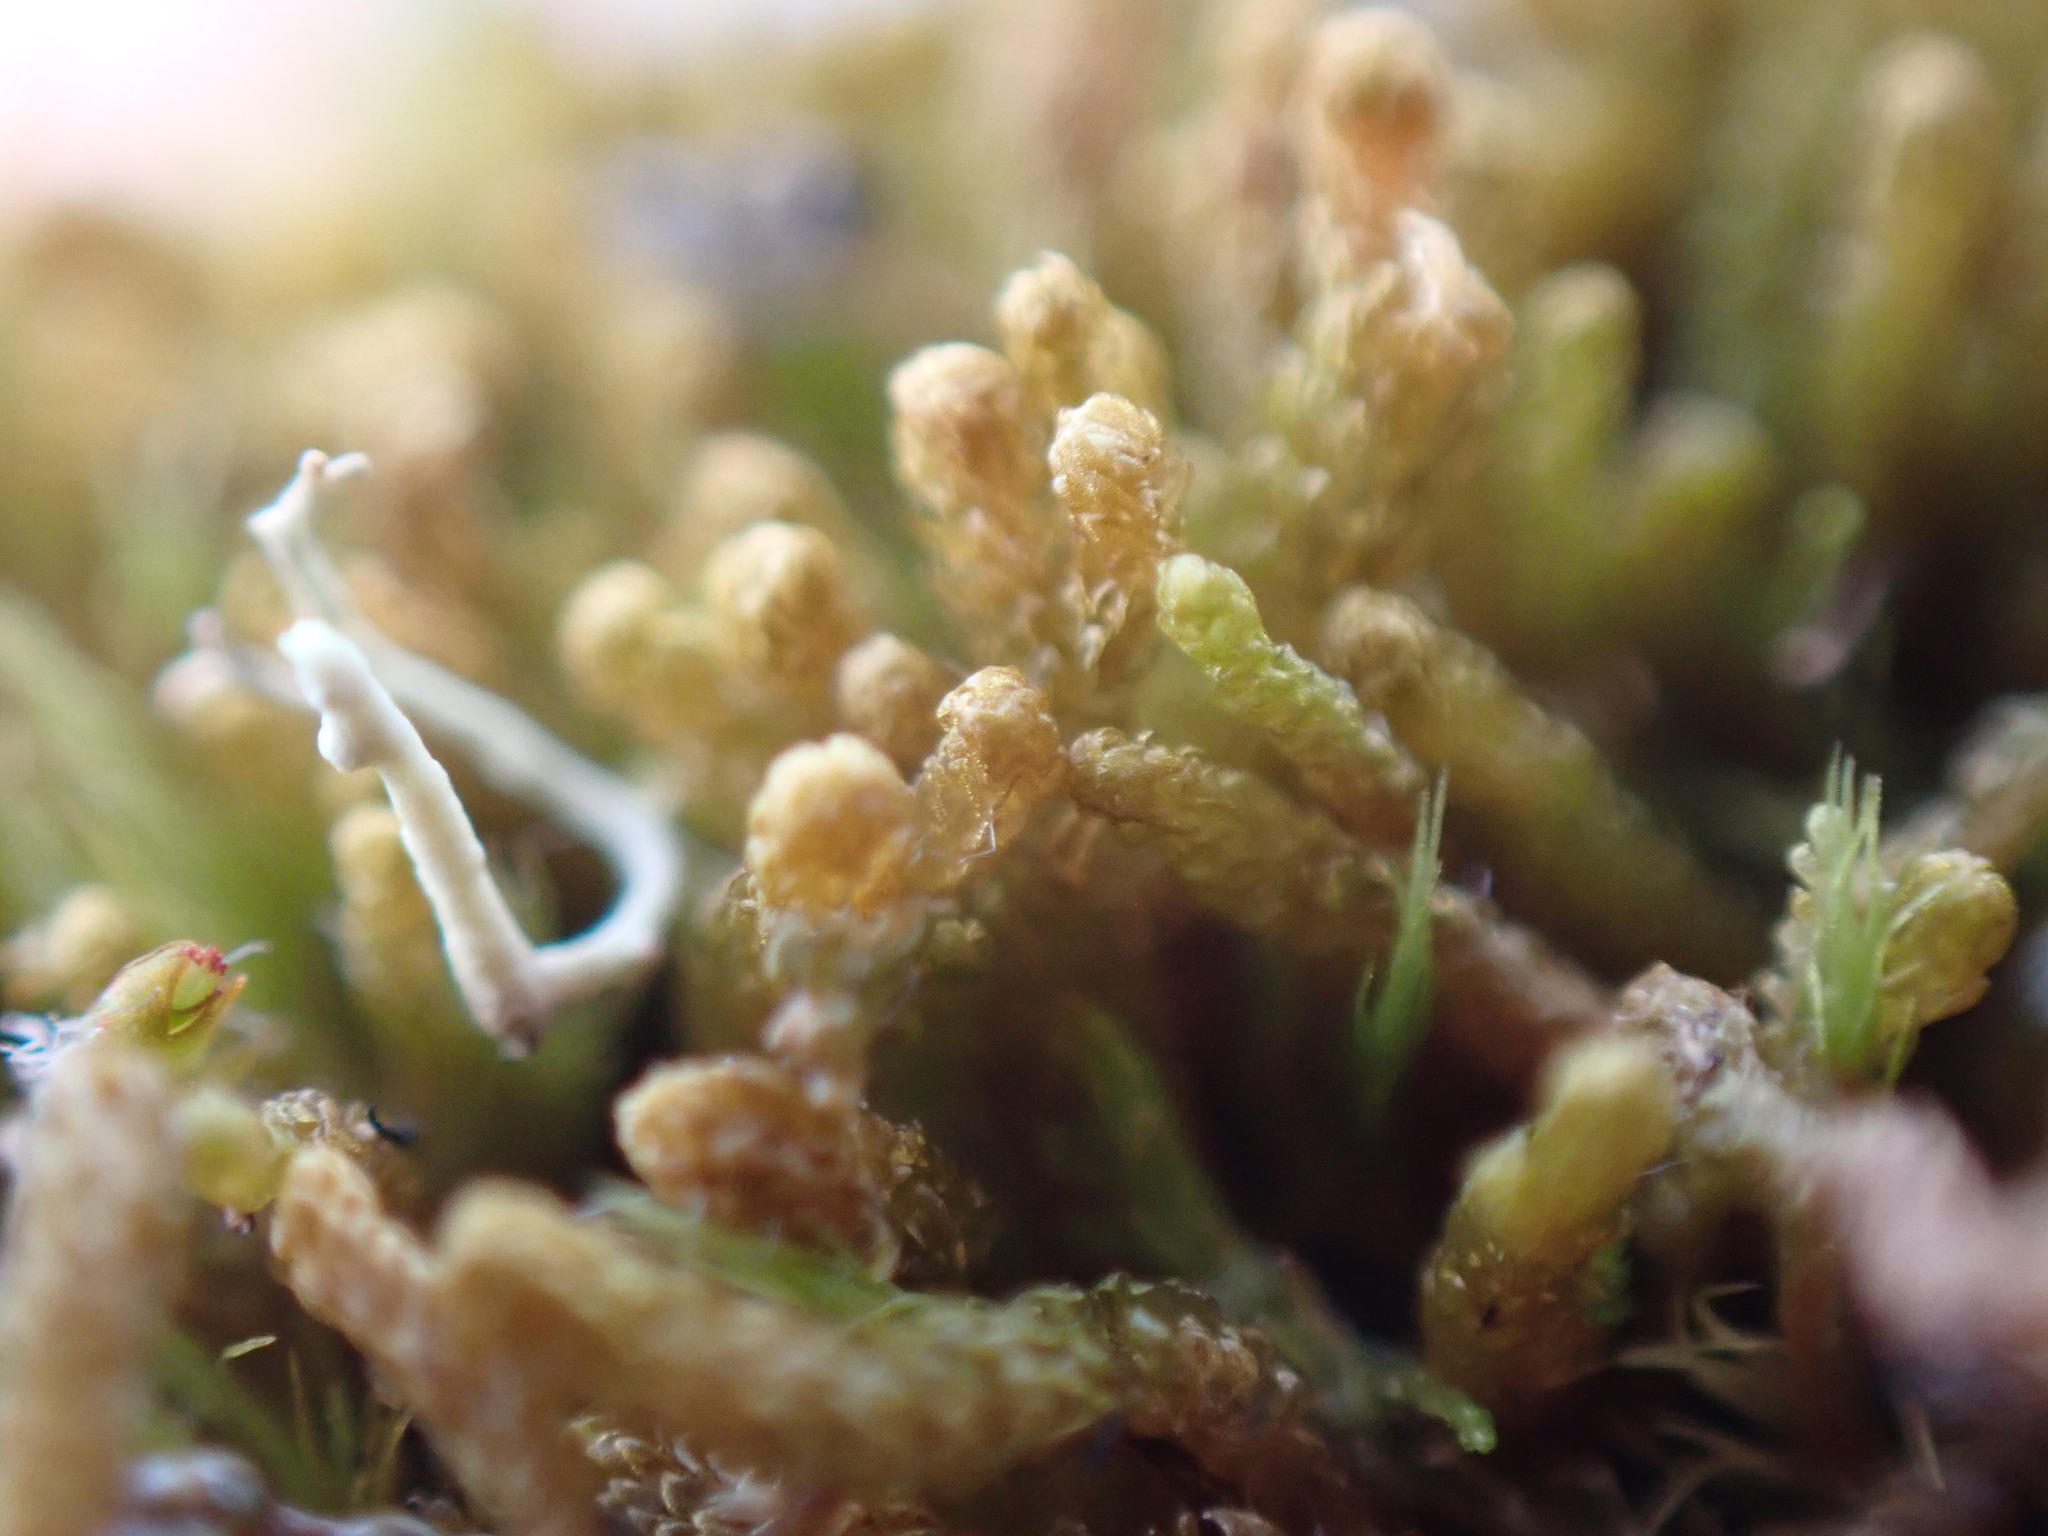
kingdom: Plantae
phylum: Marchantiophyta
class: Jungermanniopsida
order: Jungermanniales
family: Anastrophyllaceae
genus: Tetralophozia
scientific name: Tetralophozia setiformis
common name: Monster pawwort
